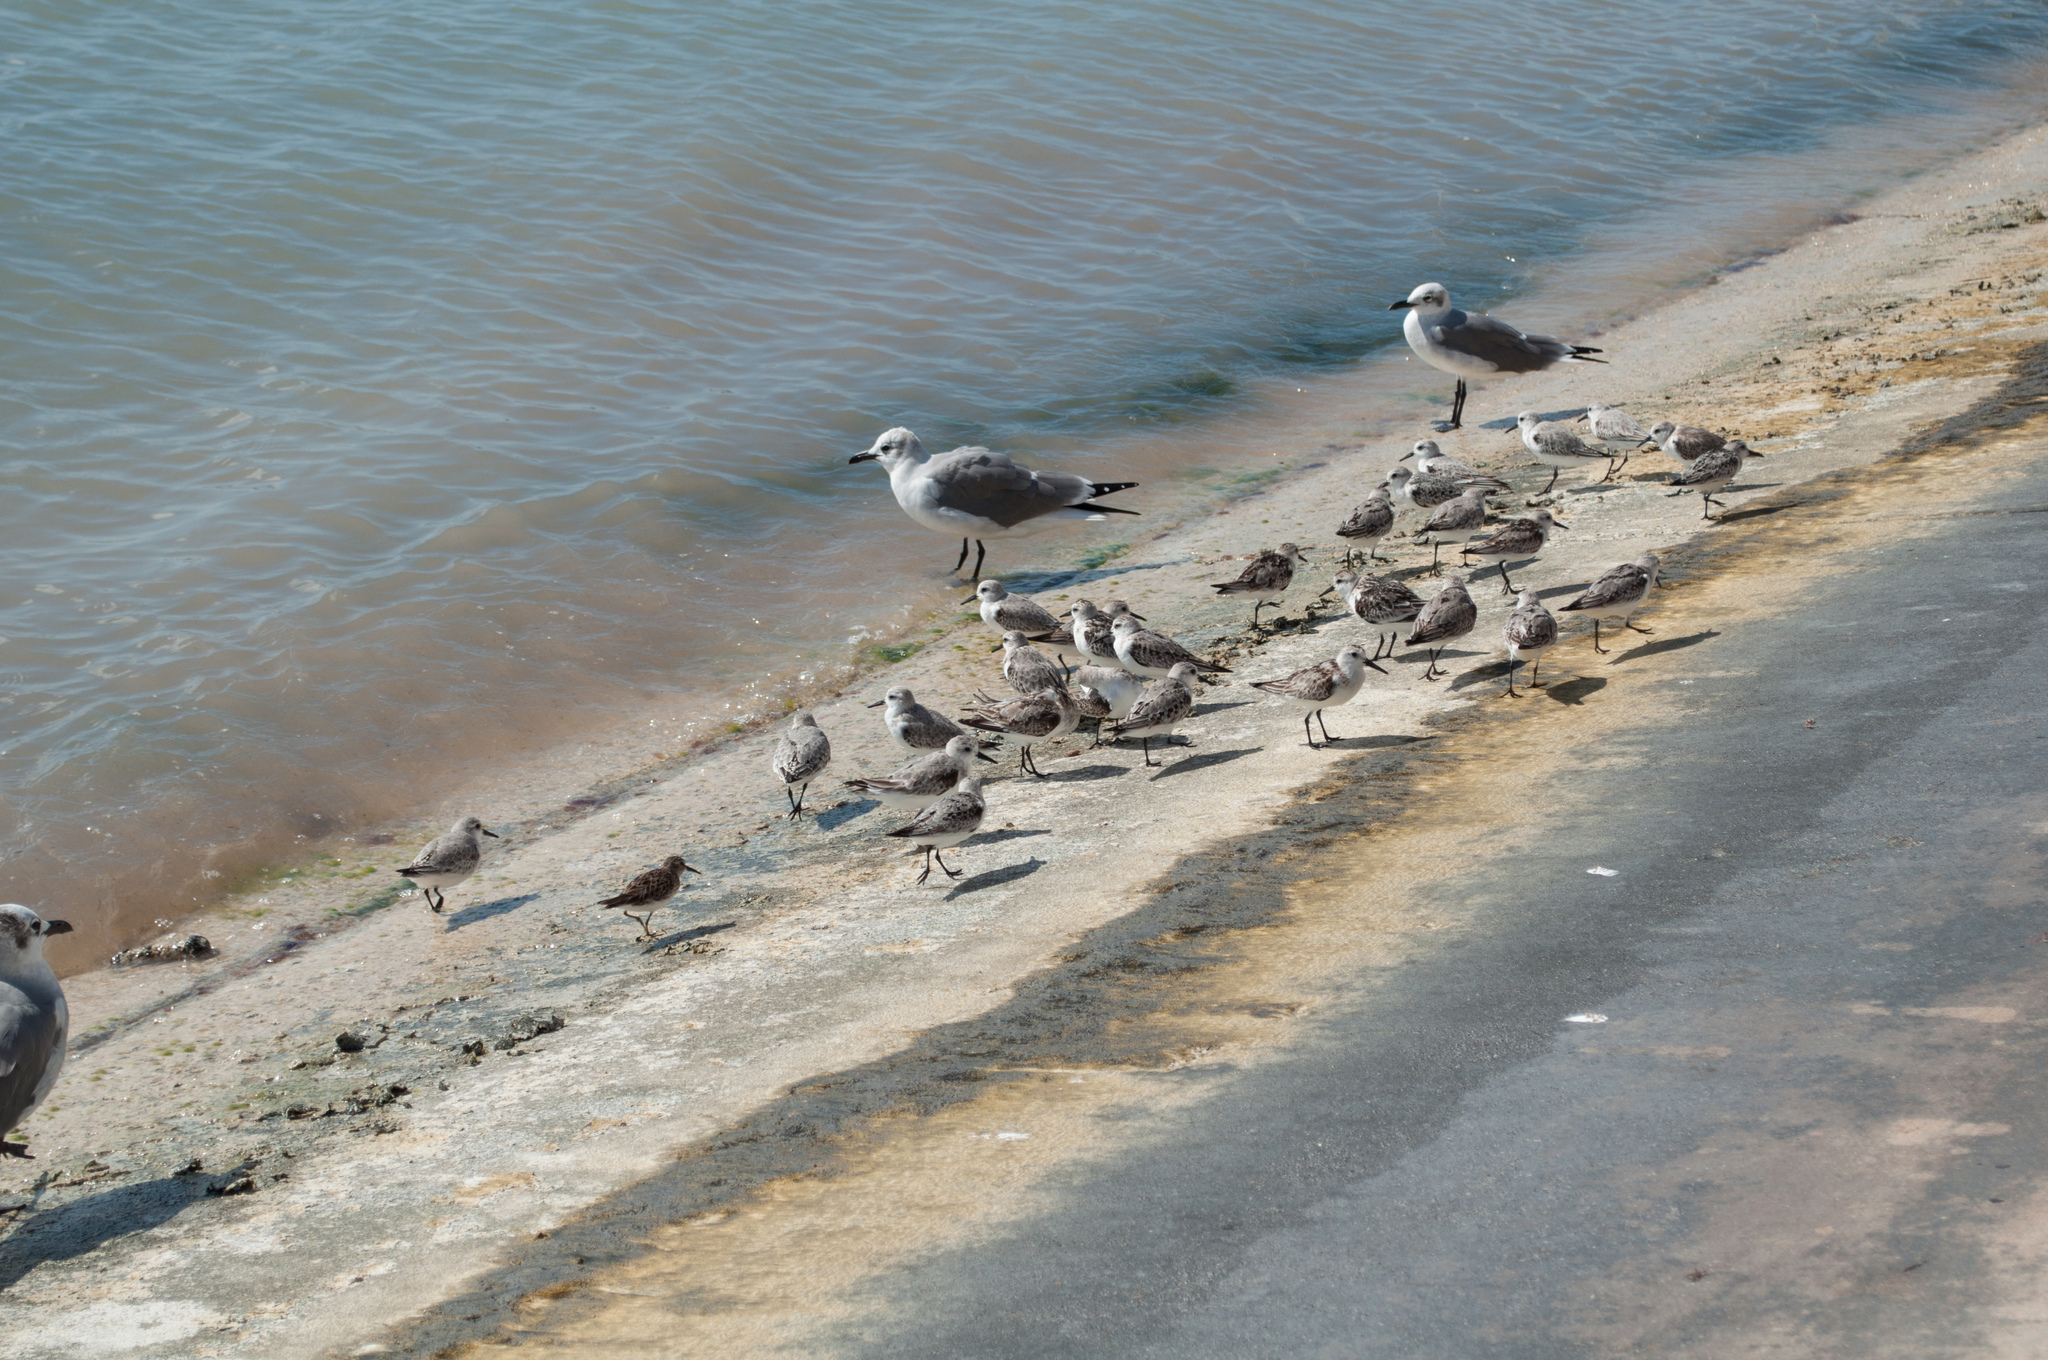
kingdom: Animalia
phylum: Chordata
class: Aves
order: Charadriiformes
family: Laridae
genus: Leucophaeus
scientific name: Leucophaeus atricilla
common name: Laughing gull
